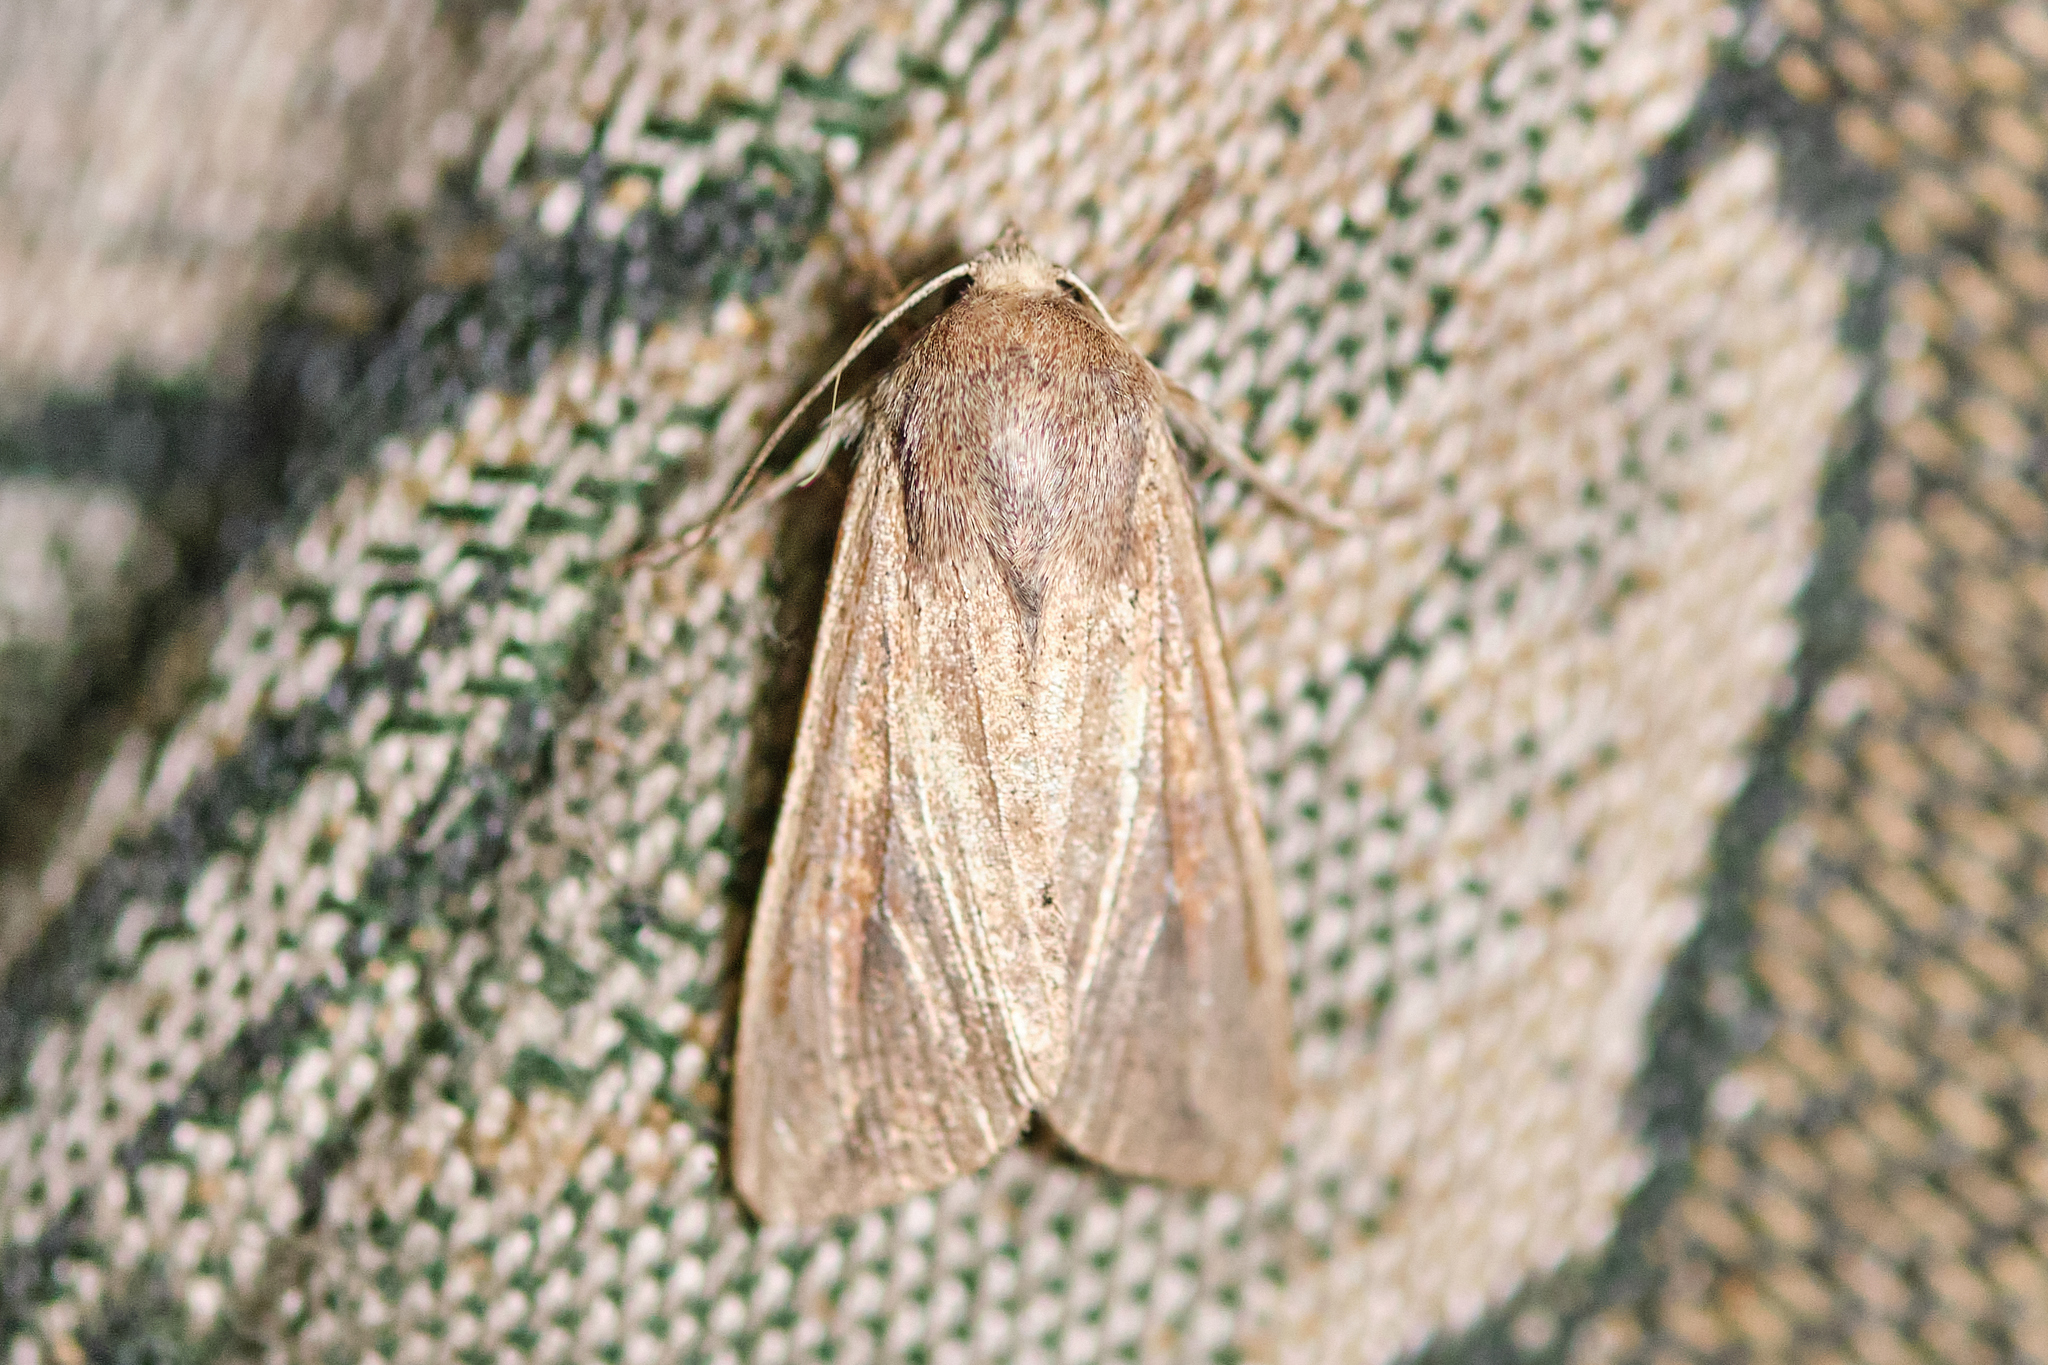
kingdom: Animalia
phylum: Arthropoda
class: Insecta
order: Lepidoptera
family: Noctuidae
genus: Mythimna
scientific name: Mythimna unipuncta
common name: White-speck
